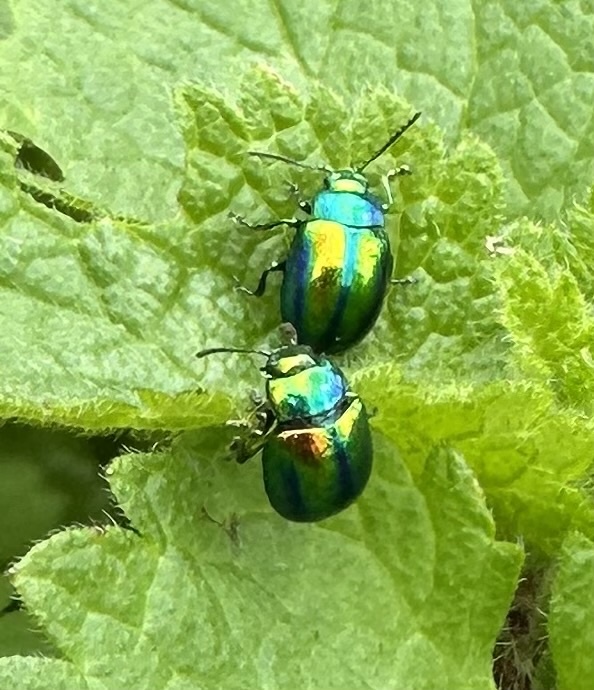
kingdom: Animalia
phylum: Arthropoda
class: Insecta
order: Coleoptera
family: Chrysomelidae
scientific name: Chrysomelidae
